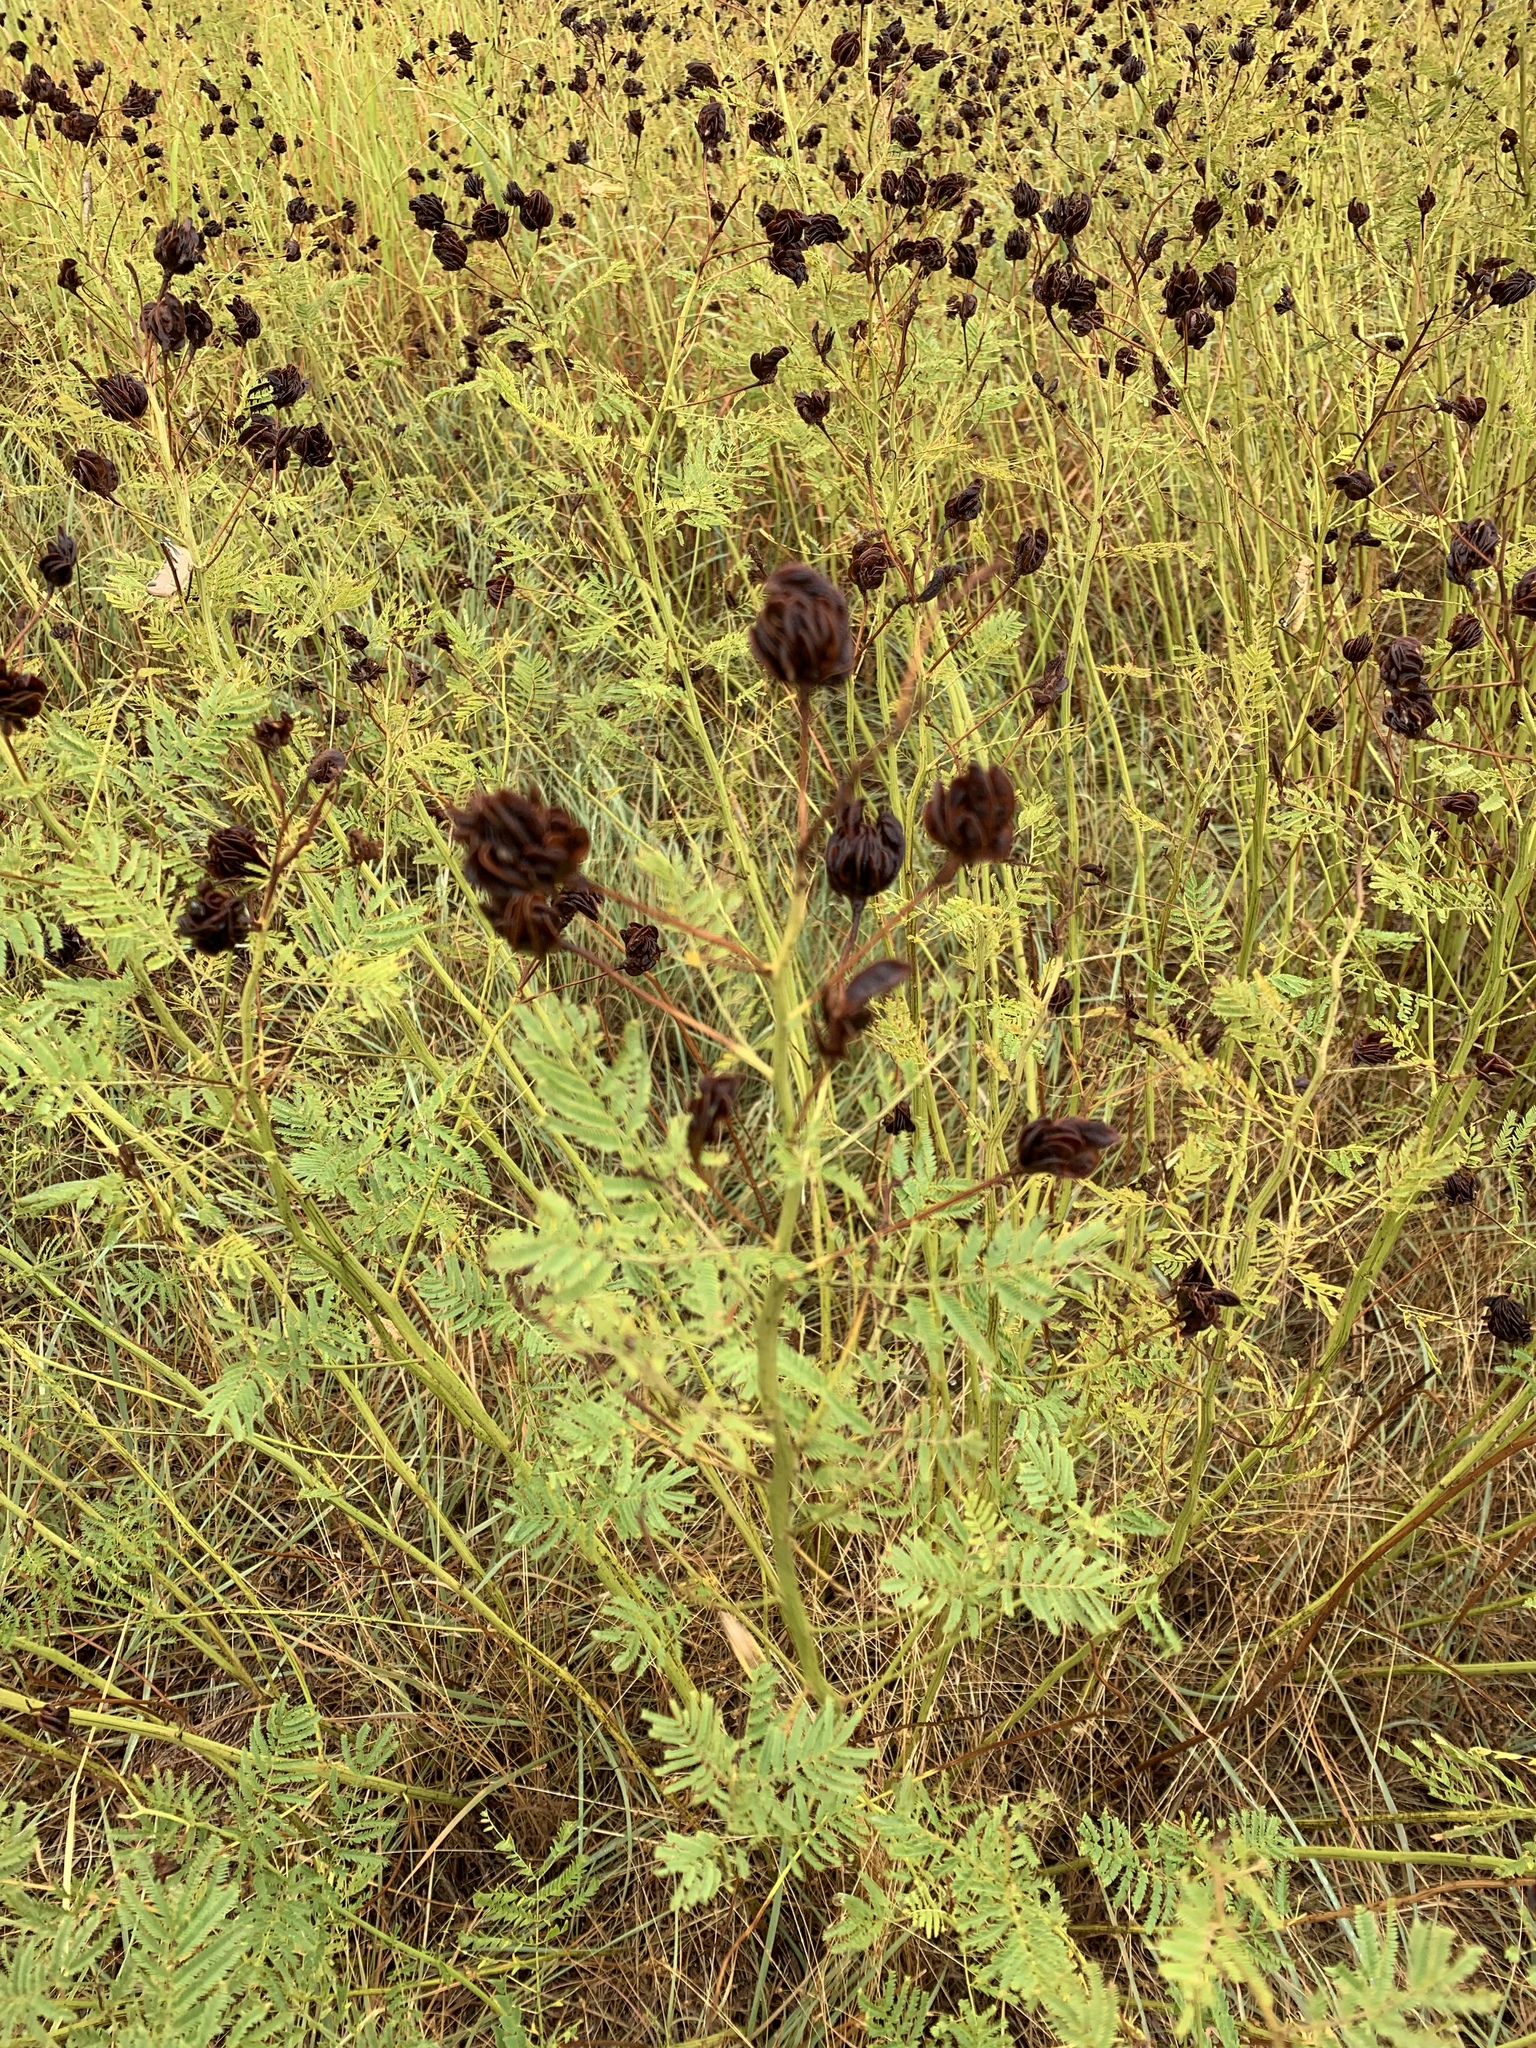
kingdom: Plantae
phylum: Tracheophyta
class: Magnoliopsida
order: Fabales
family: Fabaceae
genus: Desmanthus
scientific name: Desmanthus illinoensis
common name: Illinois bundle-flower
